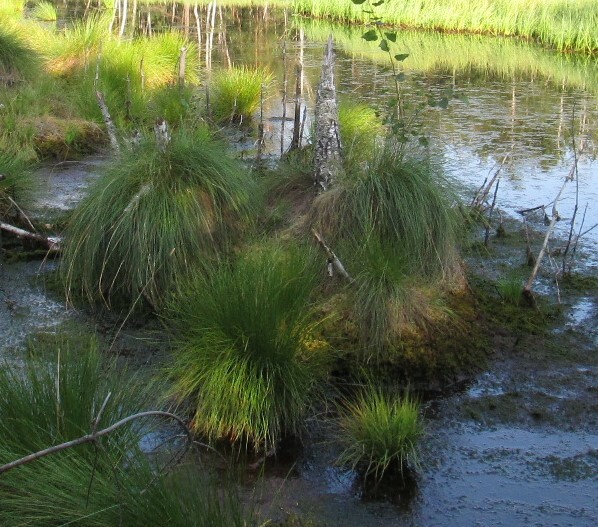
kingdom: Plantae
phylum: Tracheophyta
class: Liliopsida
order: Poales
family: Cyperaceae
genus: Eriophorum
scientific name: Eriophorum vaginatum
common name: Hare's-tail cottongrass
